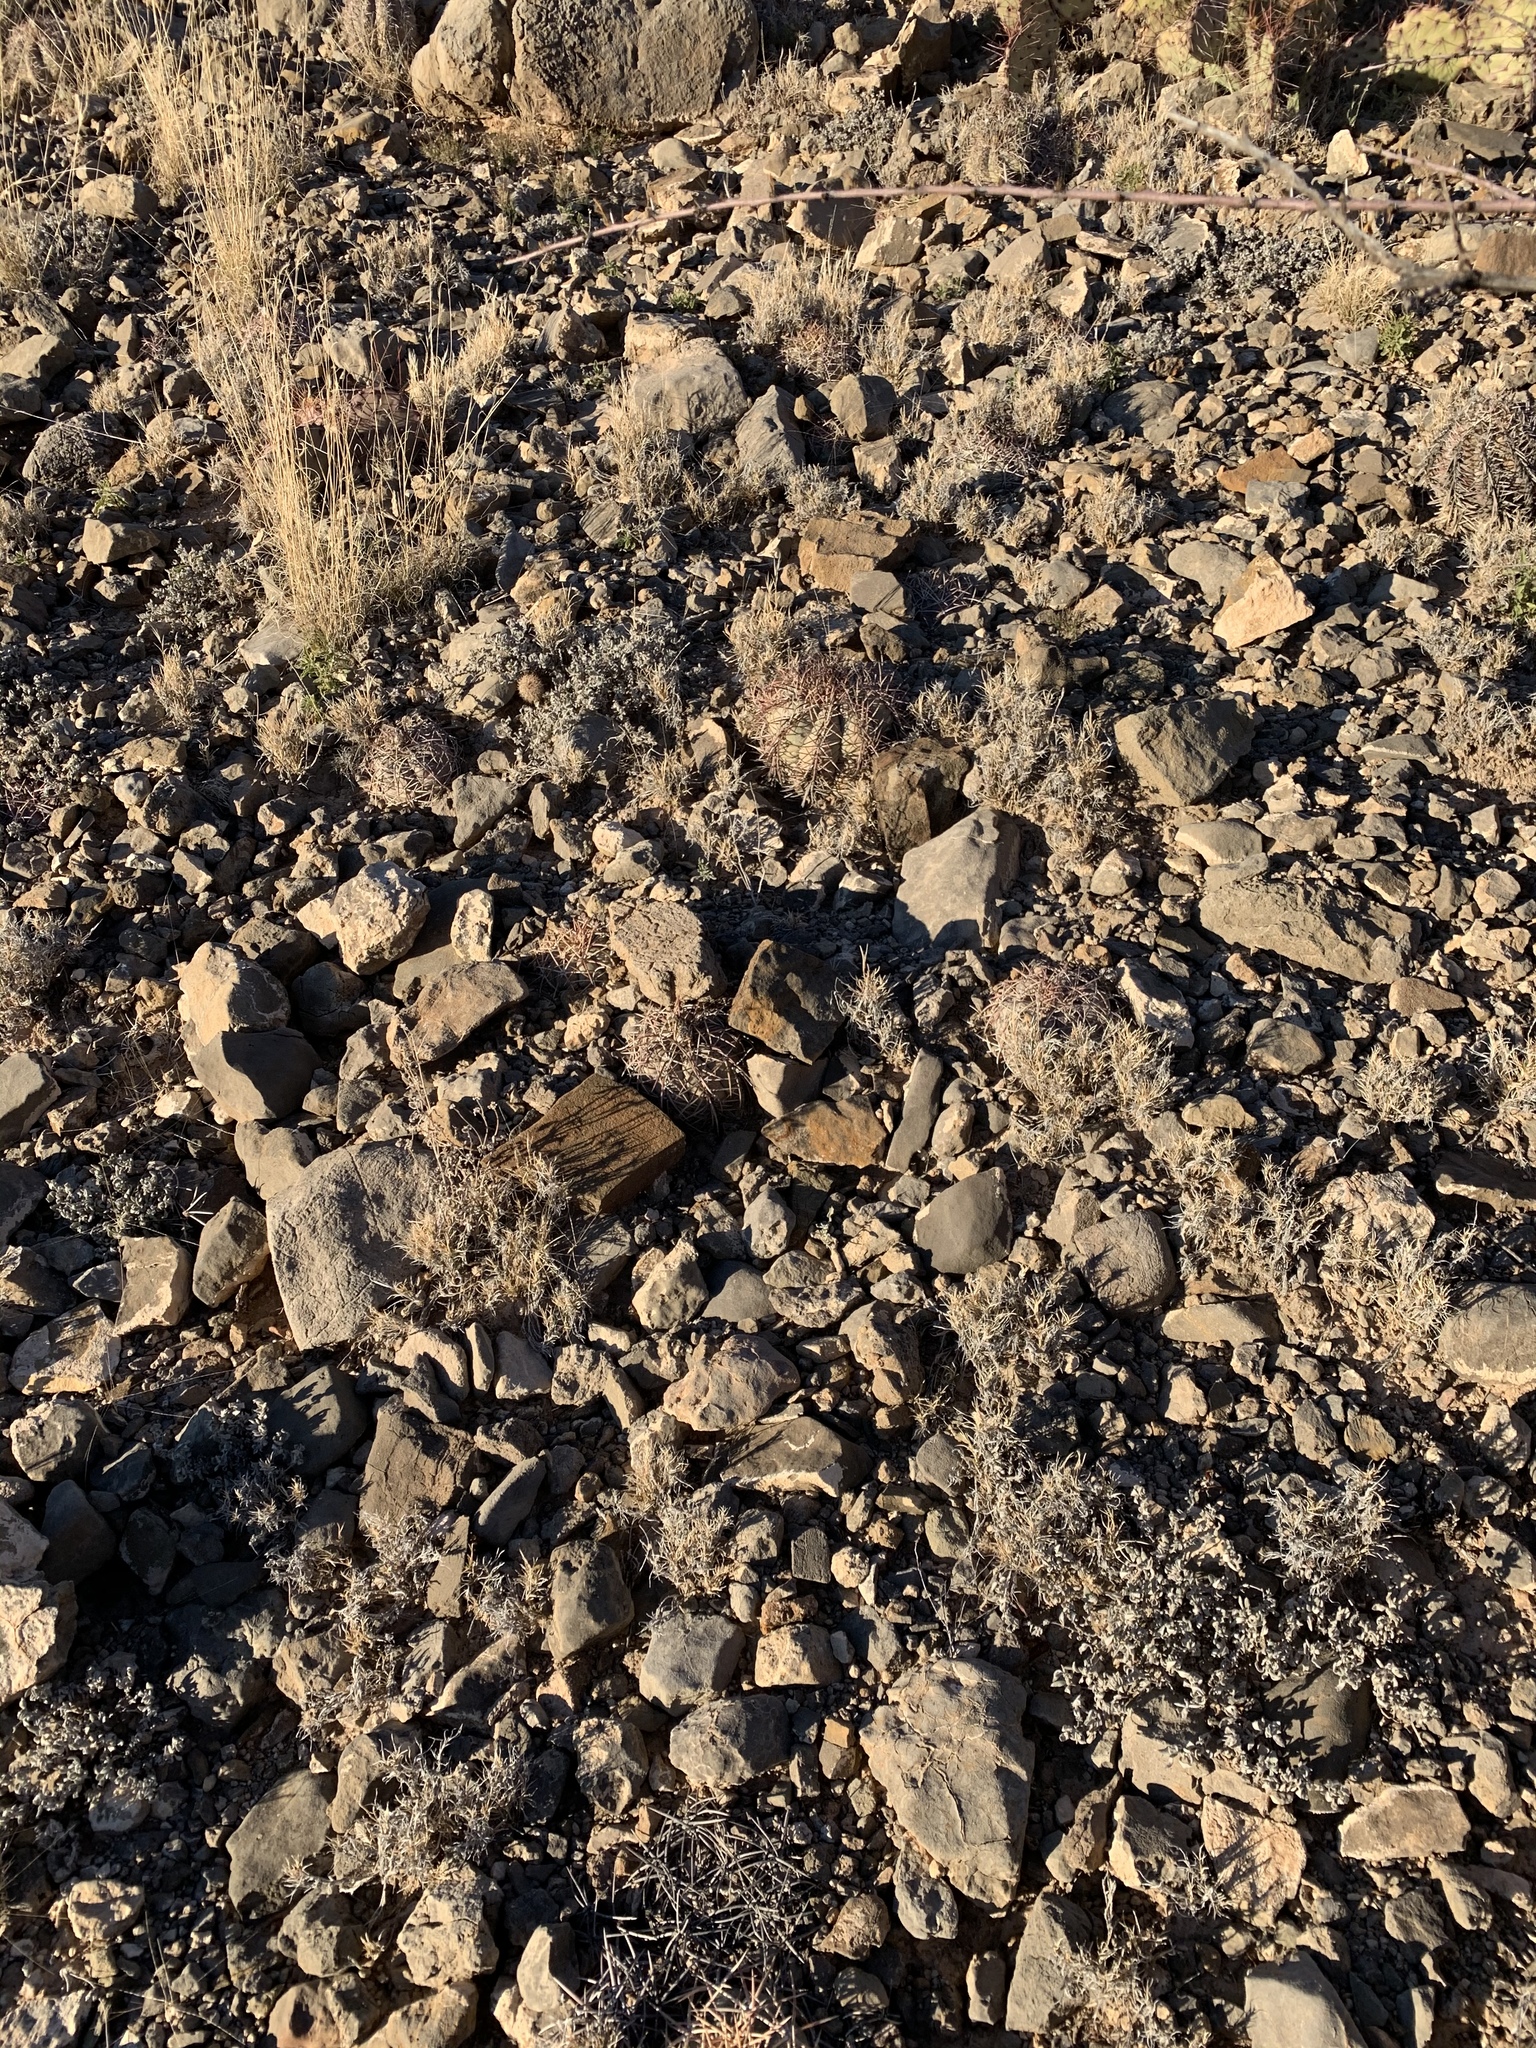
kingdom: Plantae
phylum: Tracheophyta
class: Magnoliopsida
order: Caryophyllales
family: Cactaceae
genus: Echinocactus
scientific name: Echinocactus horizonthalonius
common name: Devilshead
